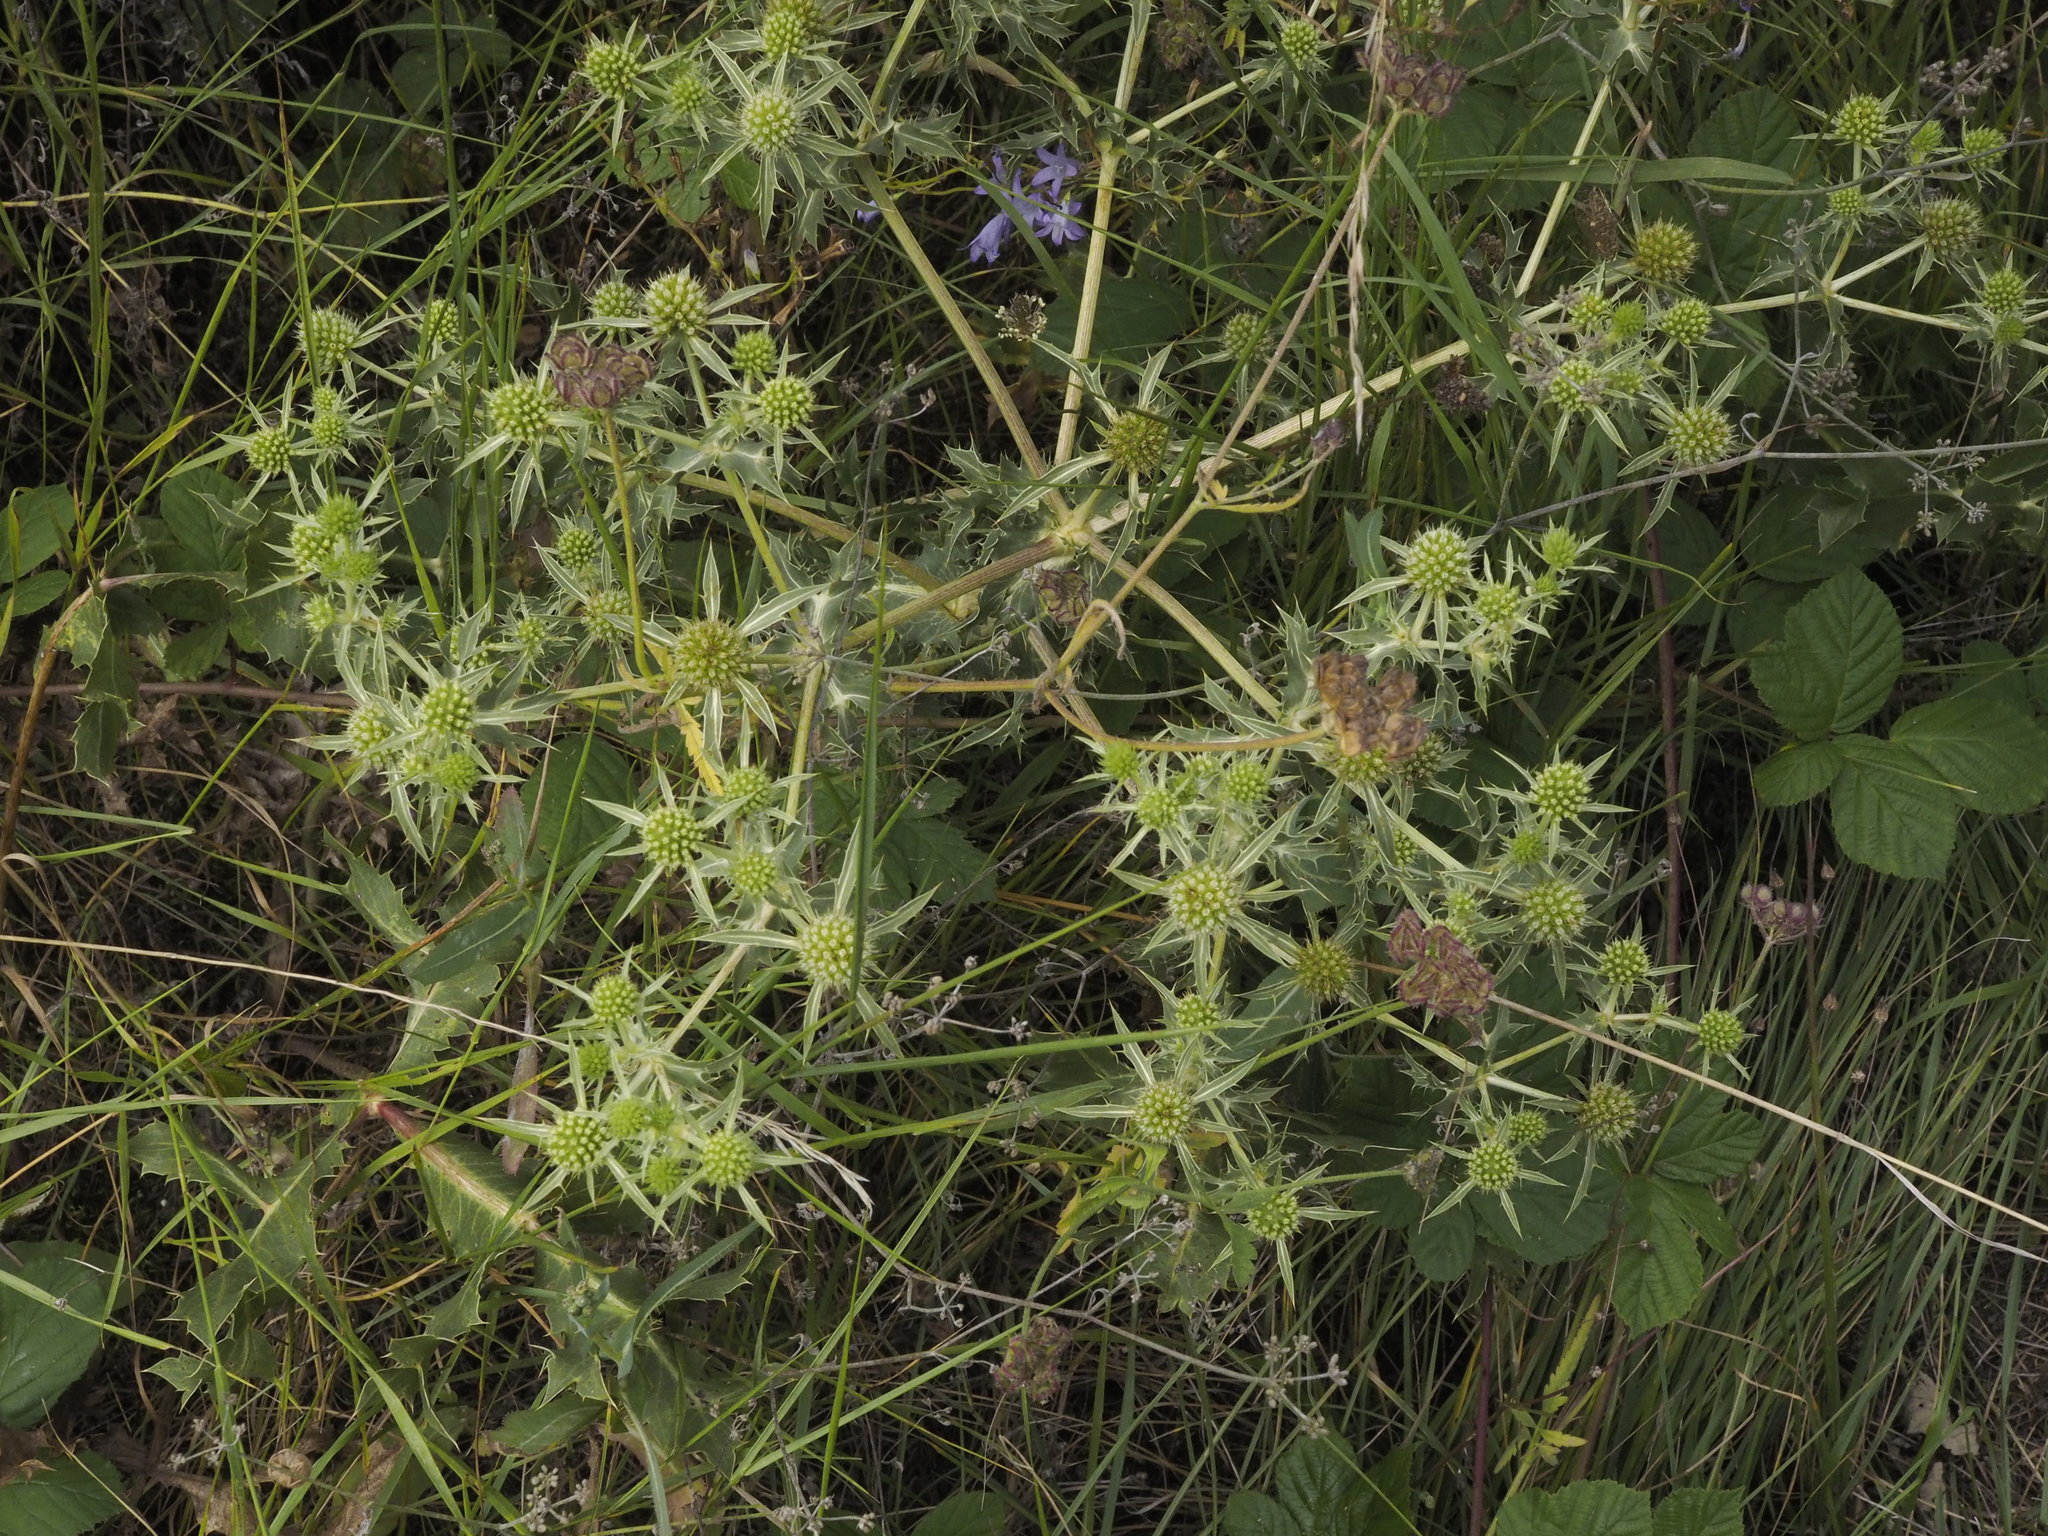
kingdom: Plantae
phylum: Tracheophyta
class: Magnoliopsida
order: Apiales
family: Apiaceae
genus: Eryngium
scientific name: Eryngium campestre
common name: Field eryngo
